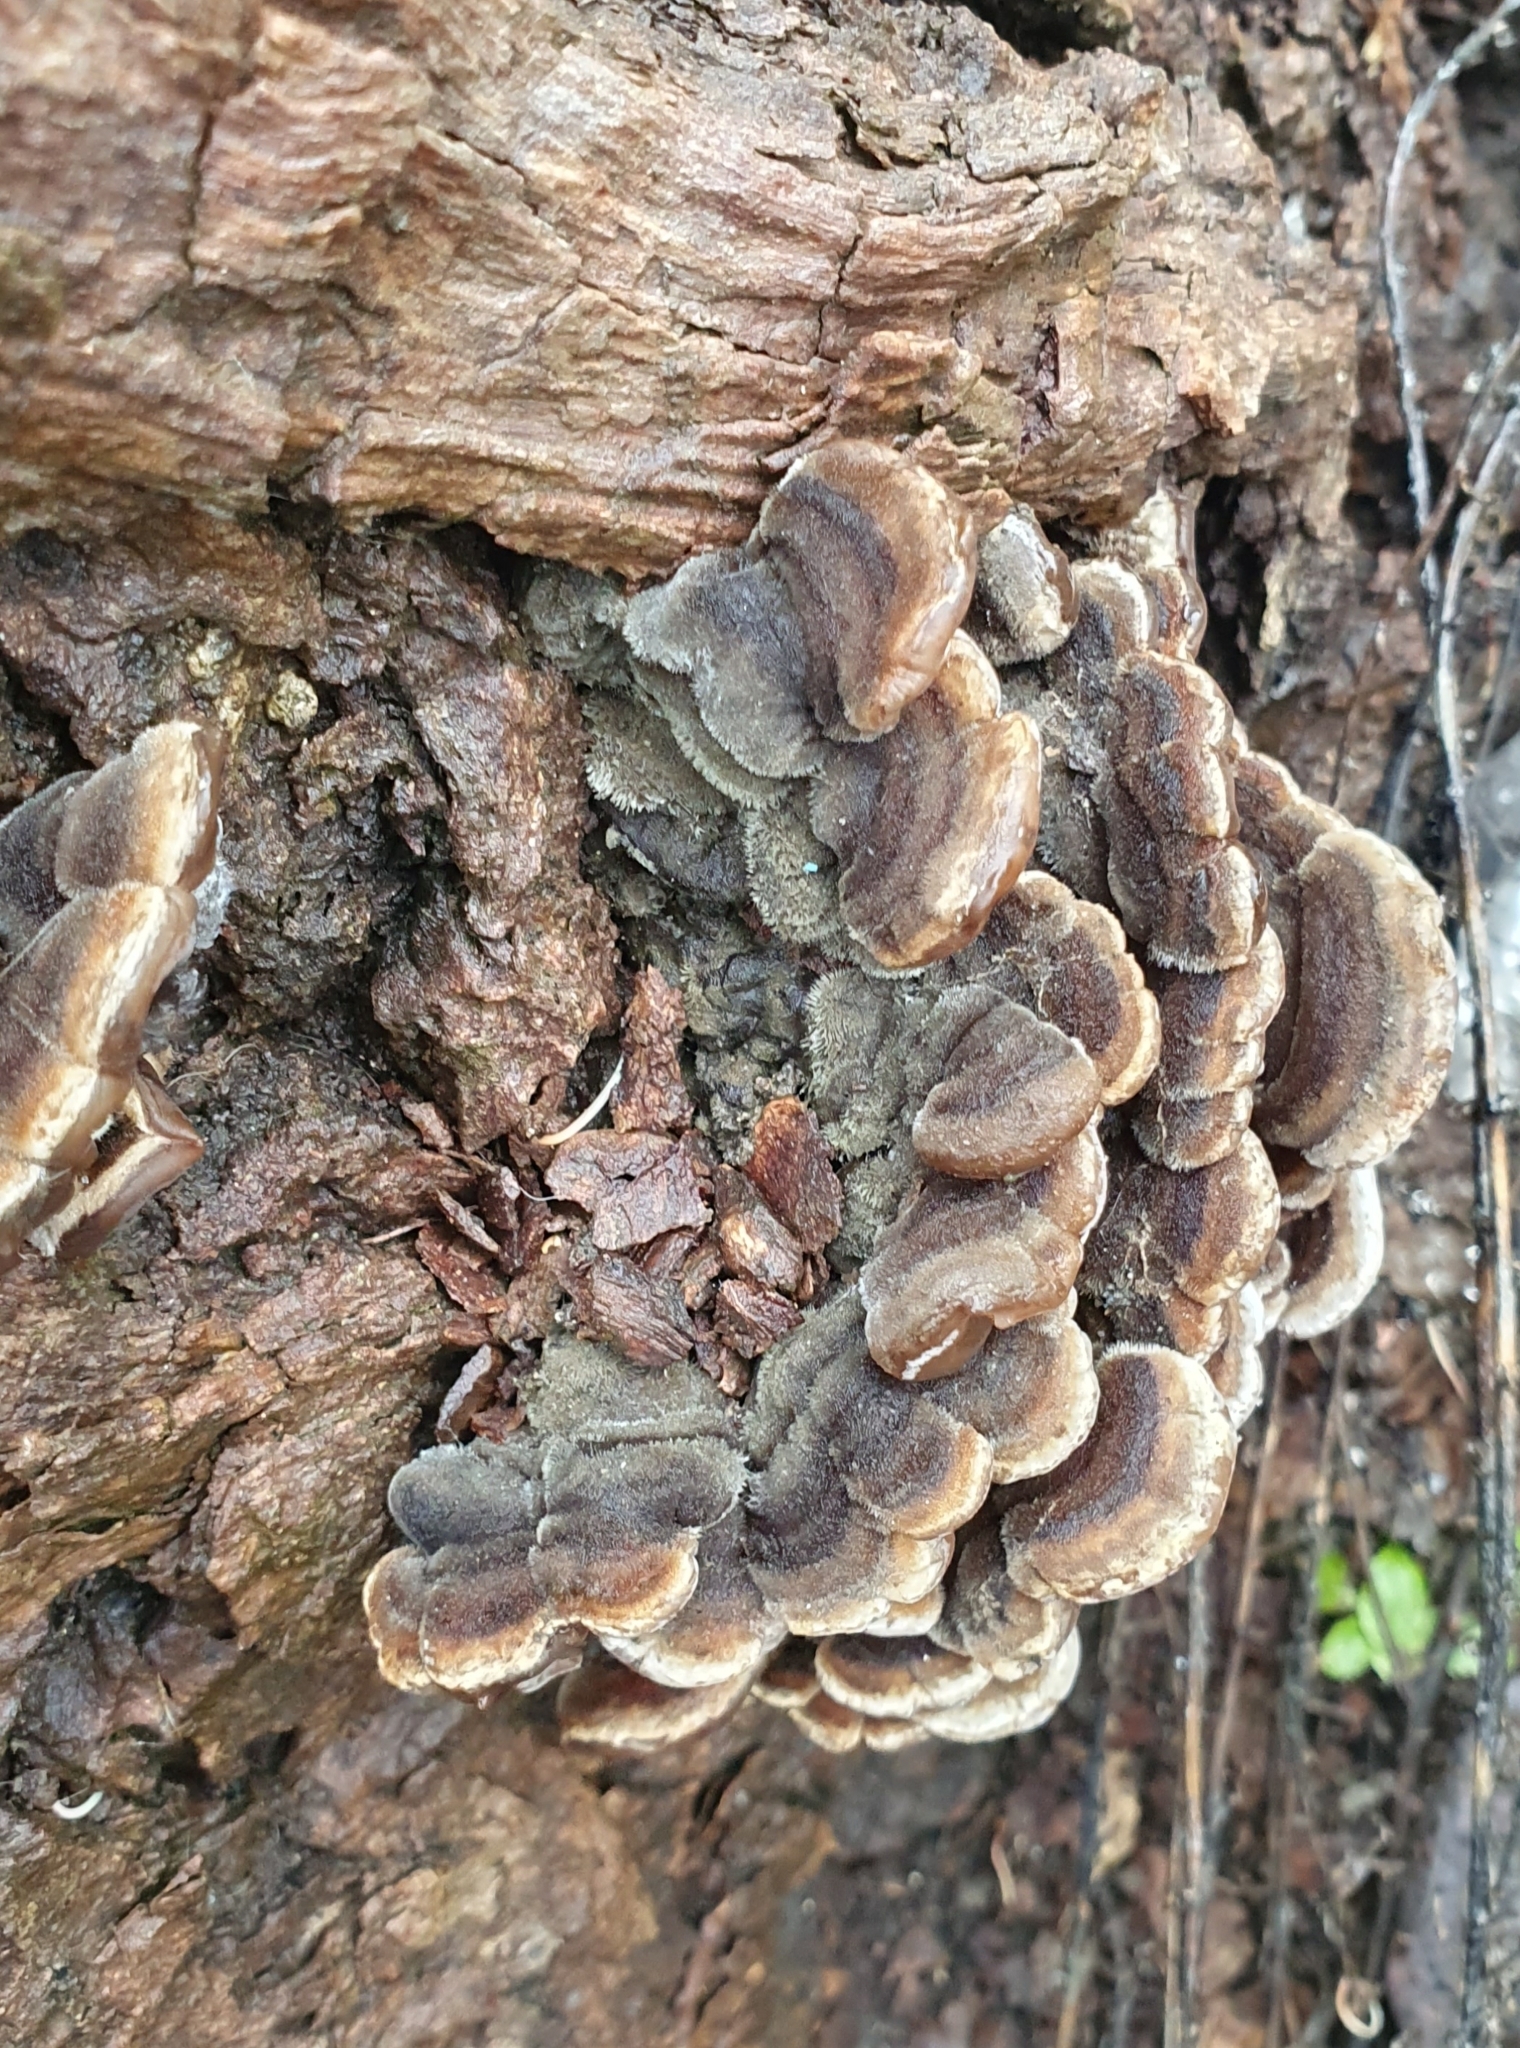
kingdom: Fungi
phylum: Basidiomycota
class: Agaricomycetes
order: Auriculariales
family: Auriculariaceae
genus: Auricularia
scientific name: Auricularia mesenterica
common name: Tripe fungus
